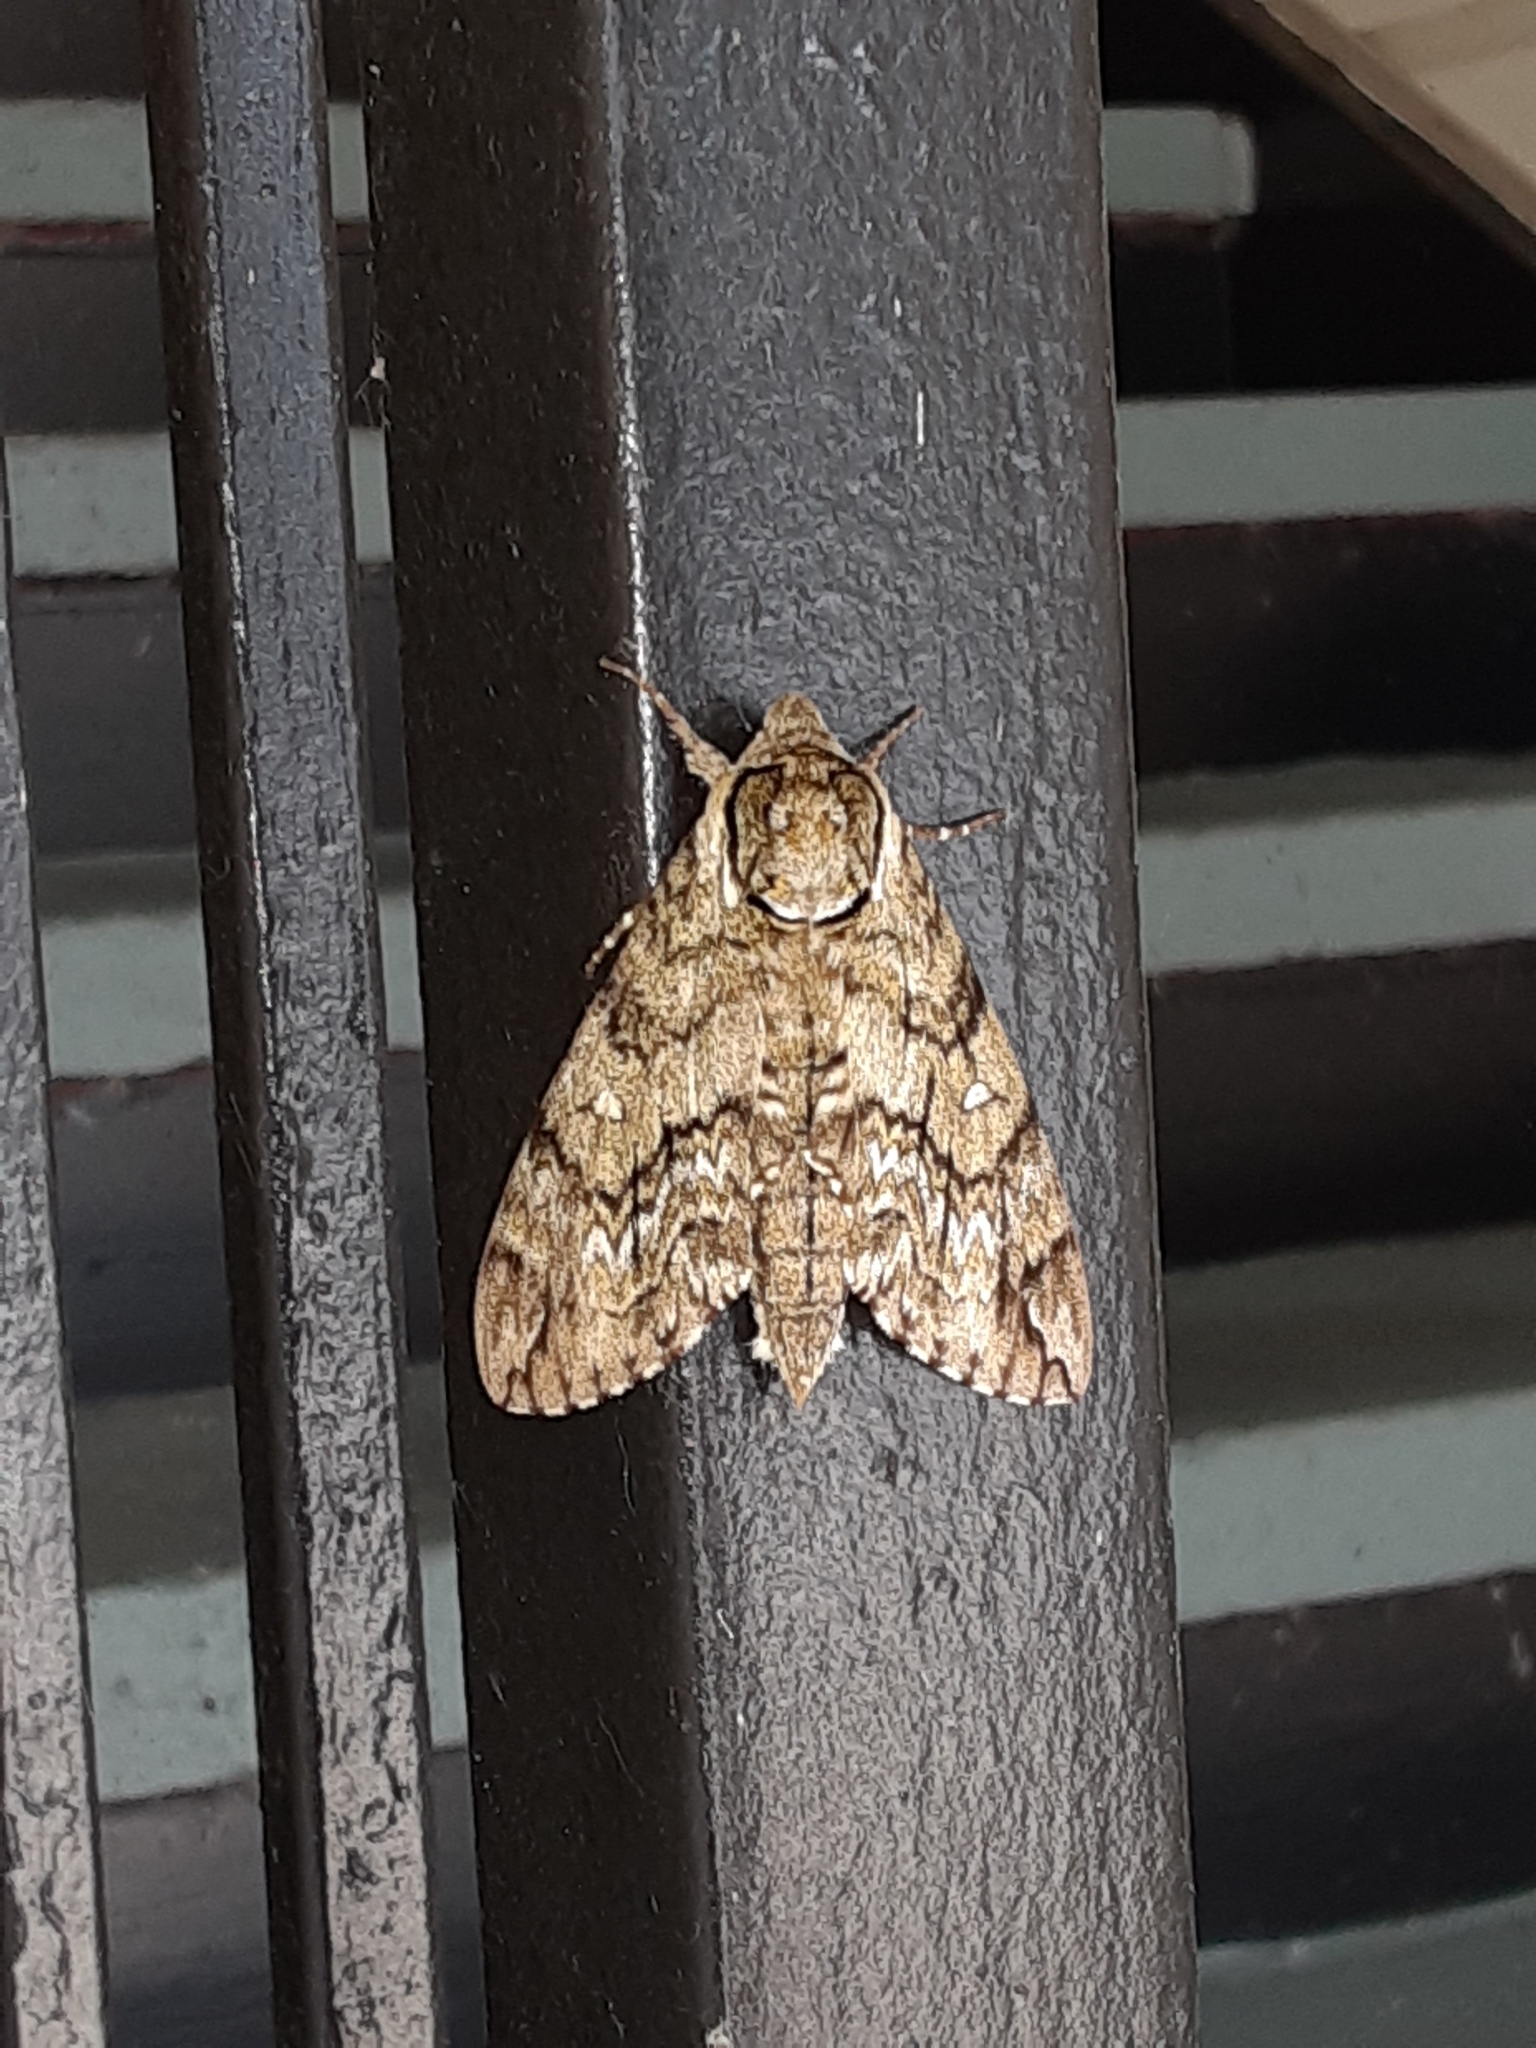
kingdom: Animalia
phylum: Arthropoda
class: Insecta
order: Lepidoptera
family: Sphingidae
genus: Ceratomia
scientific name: Ceratomia undulosa
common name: Waved sphinx
